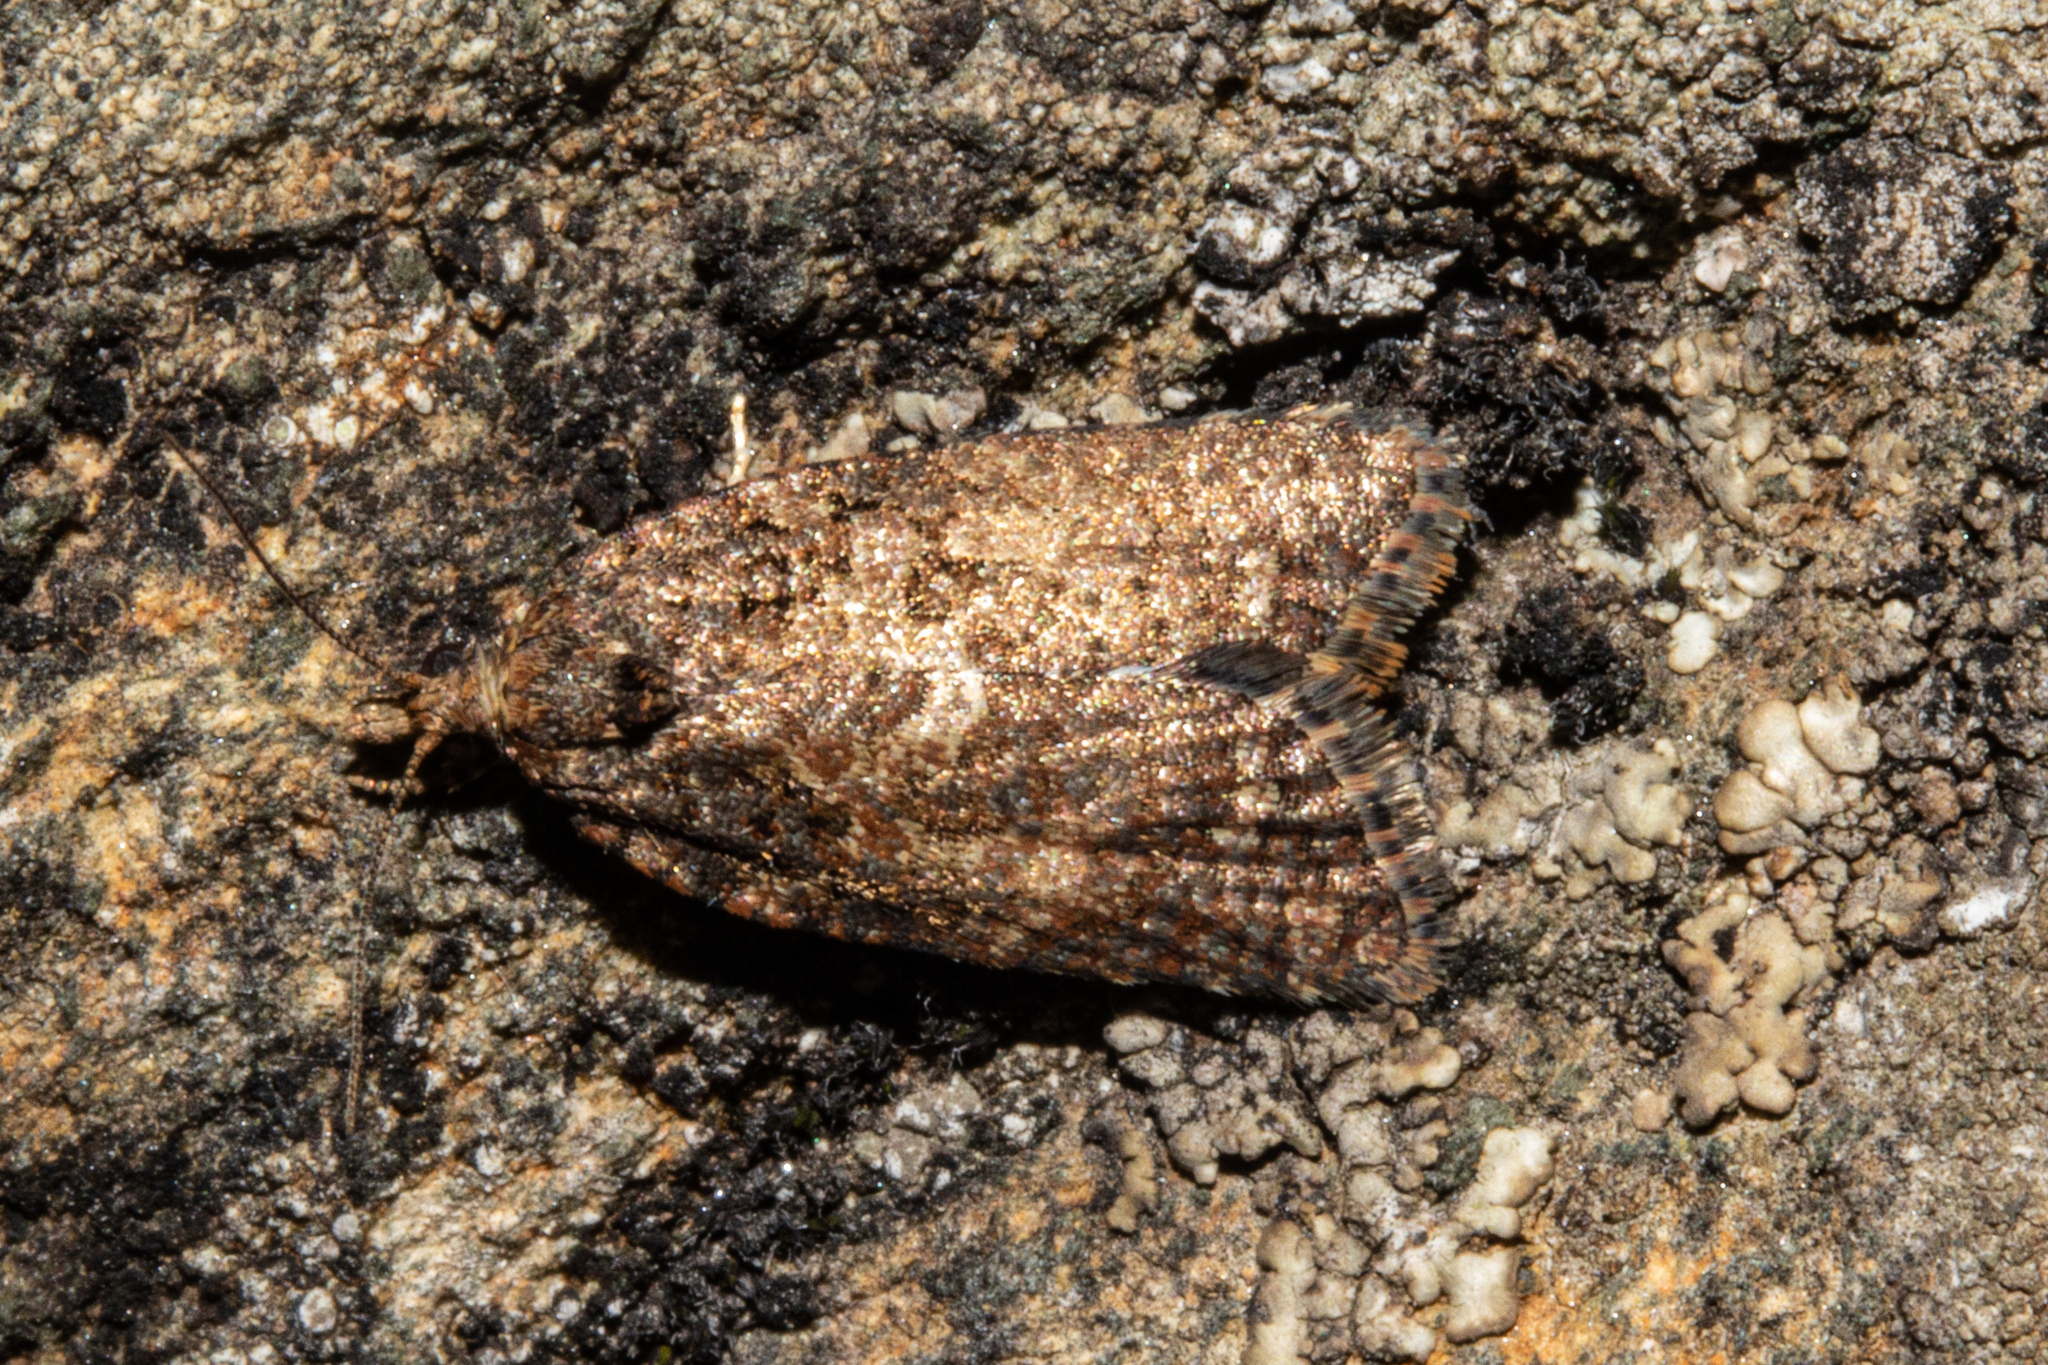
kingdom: Animalia
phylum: Arthropoda
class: Insecta
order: Lepidoptera
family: Tortricidae
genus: Capua
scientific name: Capua intractana
